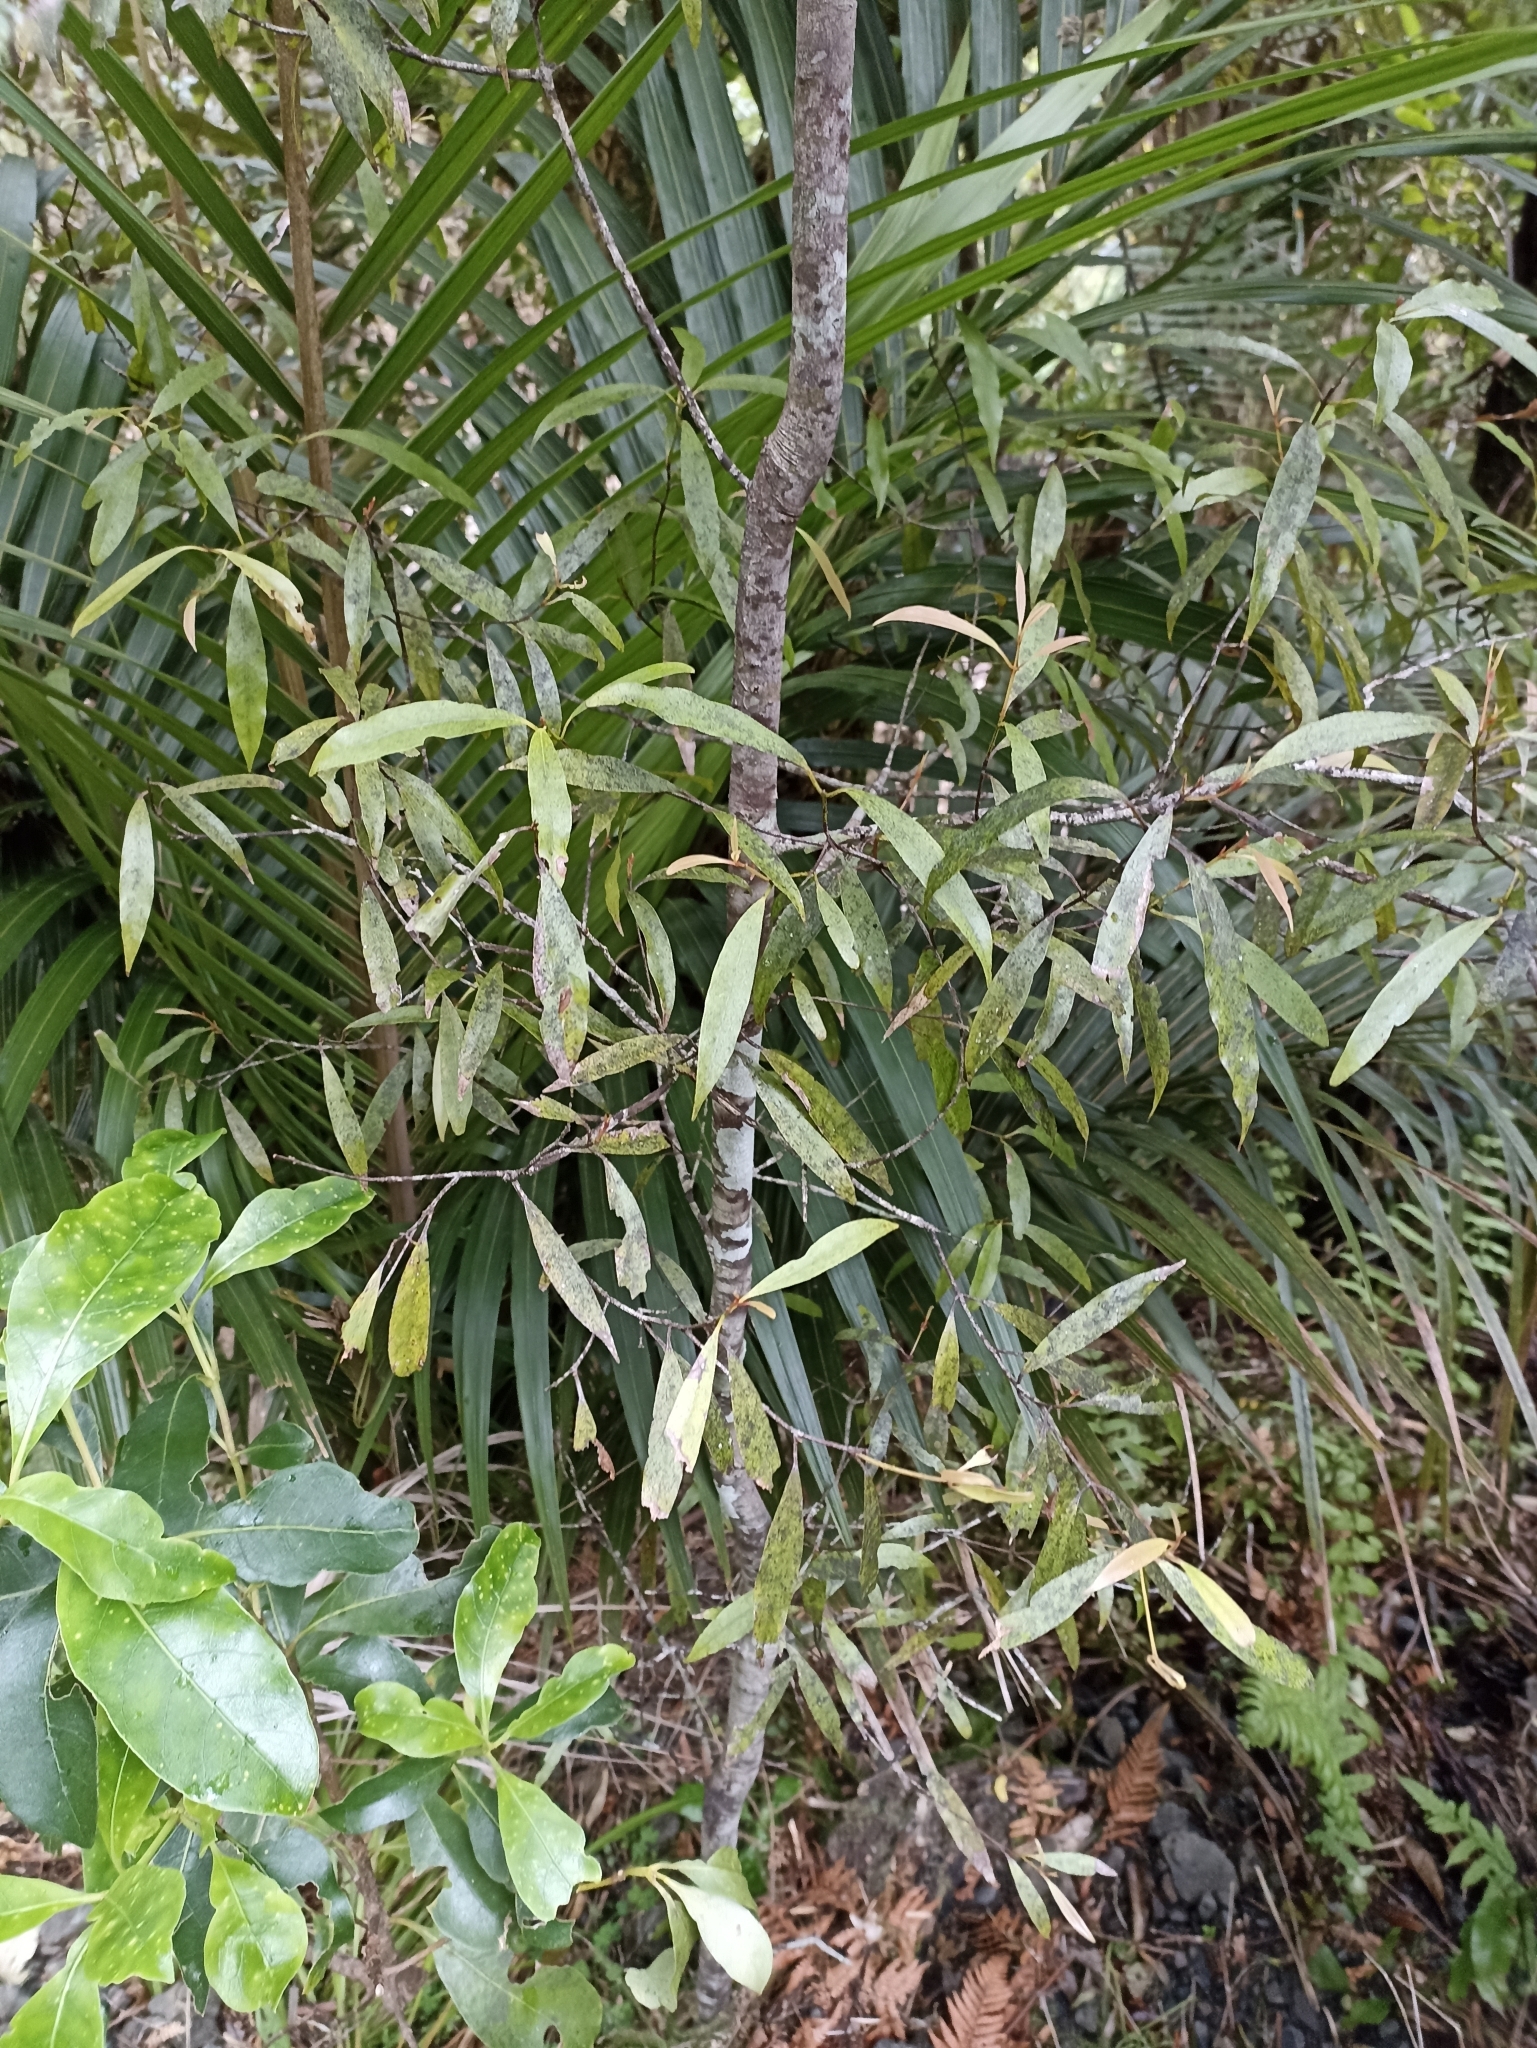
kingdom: Plantae
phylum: Tracheophyta
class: Magnoliopsida
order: Laurales
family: Lauraceae
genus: Beilschmiedia
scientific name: Beilschmiedia tawa
